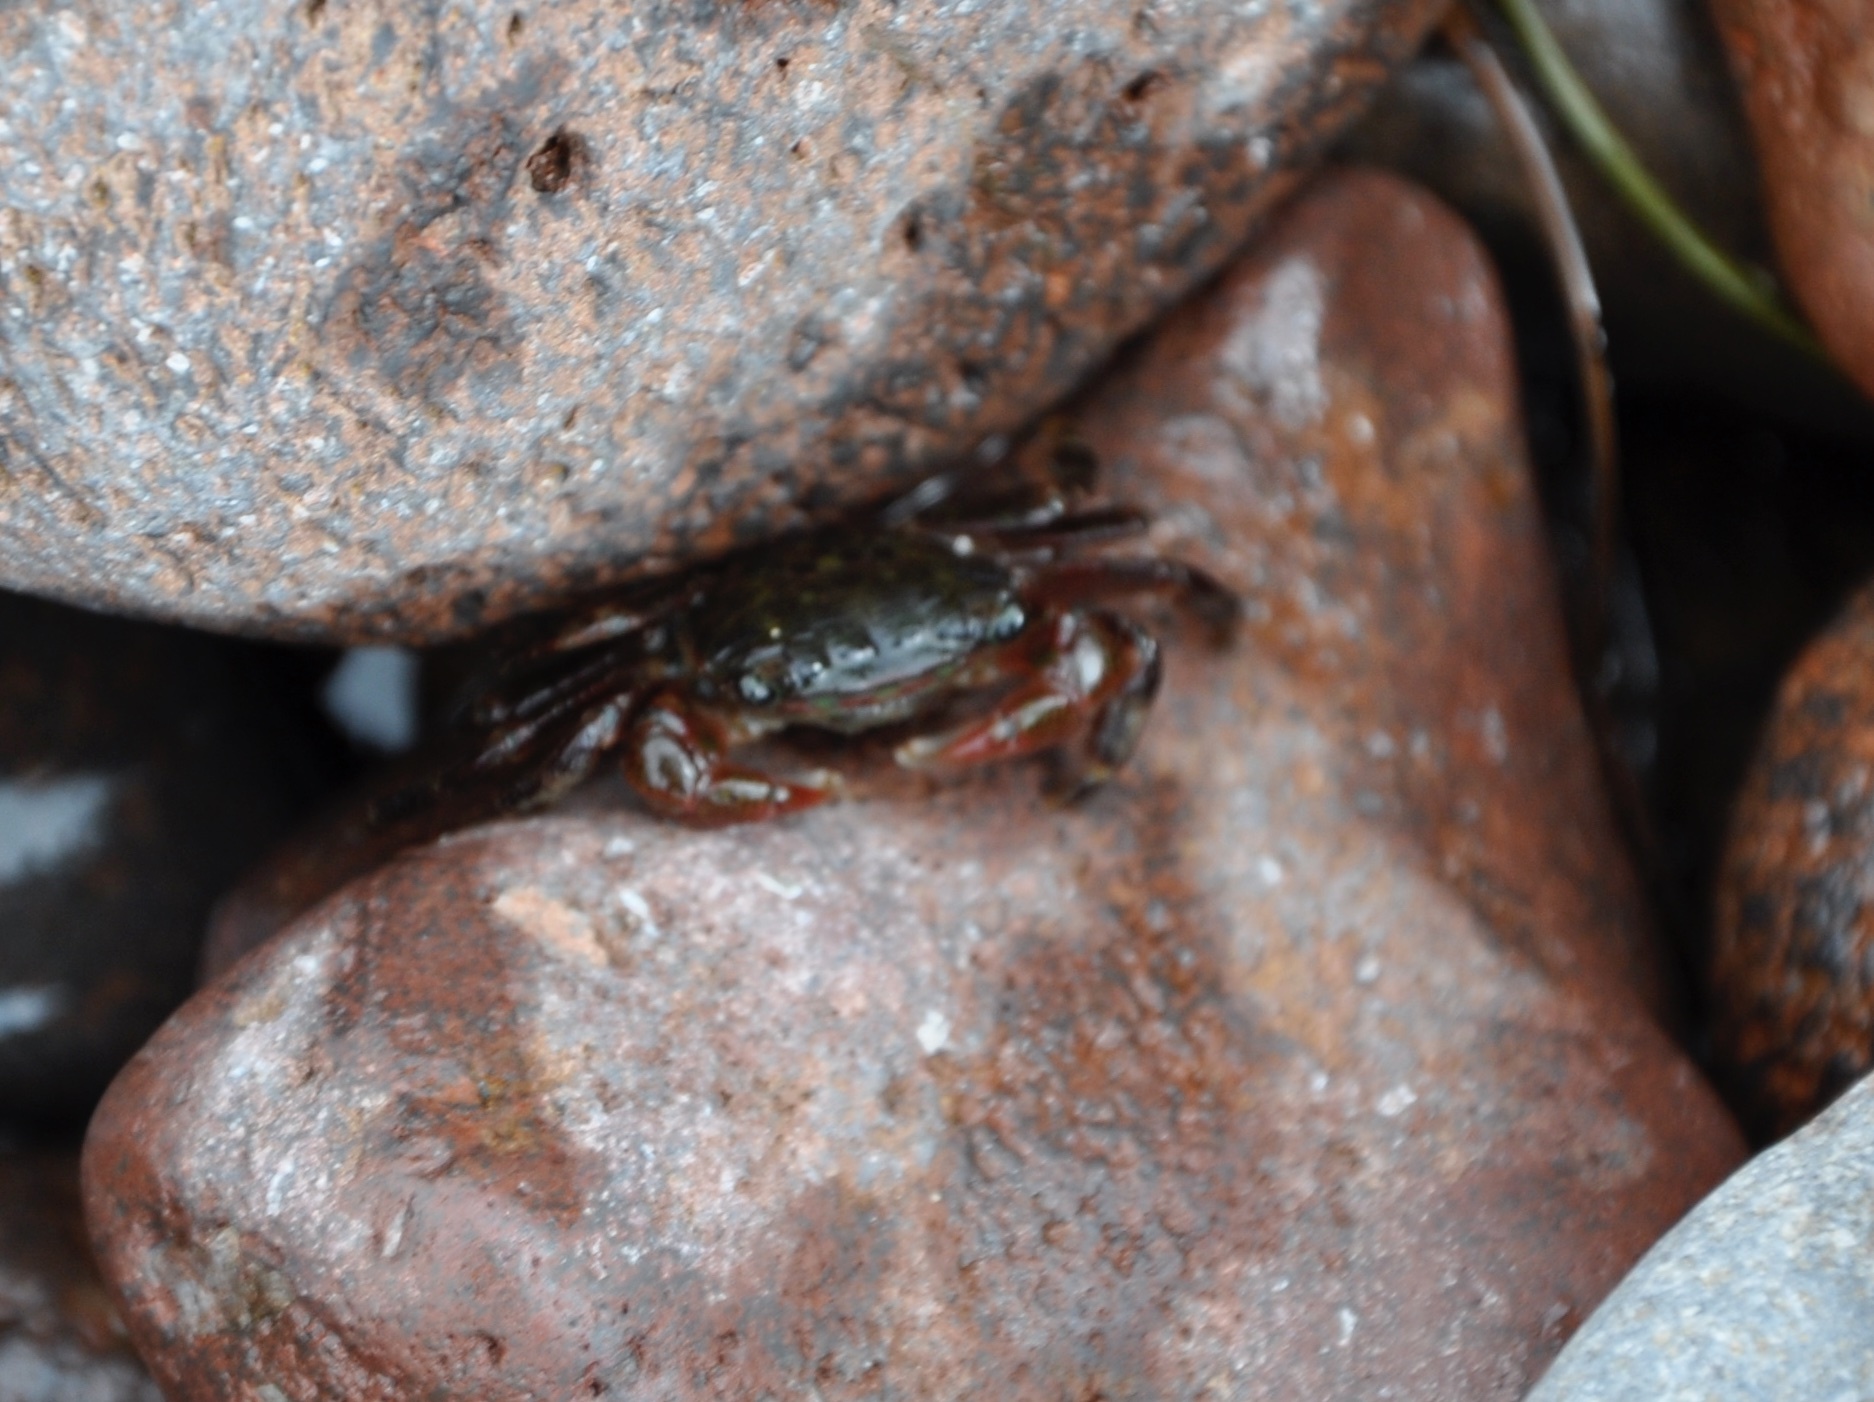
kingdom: Animalia
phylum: Arthropoda
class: Malacostraca
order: Decapoda
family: Grapsidae
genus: Pachygrapsus
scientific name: Pachygrapsus crassipes
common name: Striped shore crab
